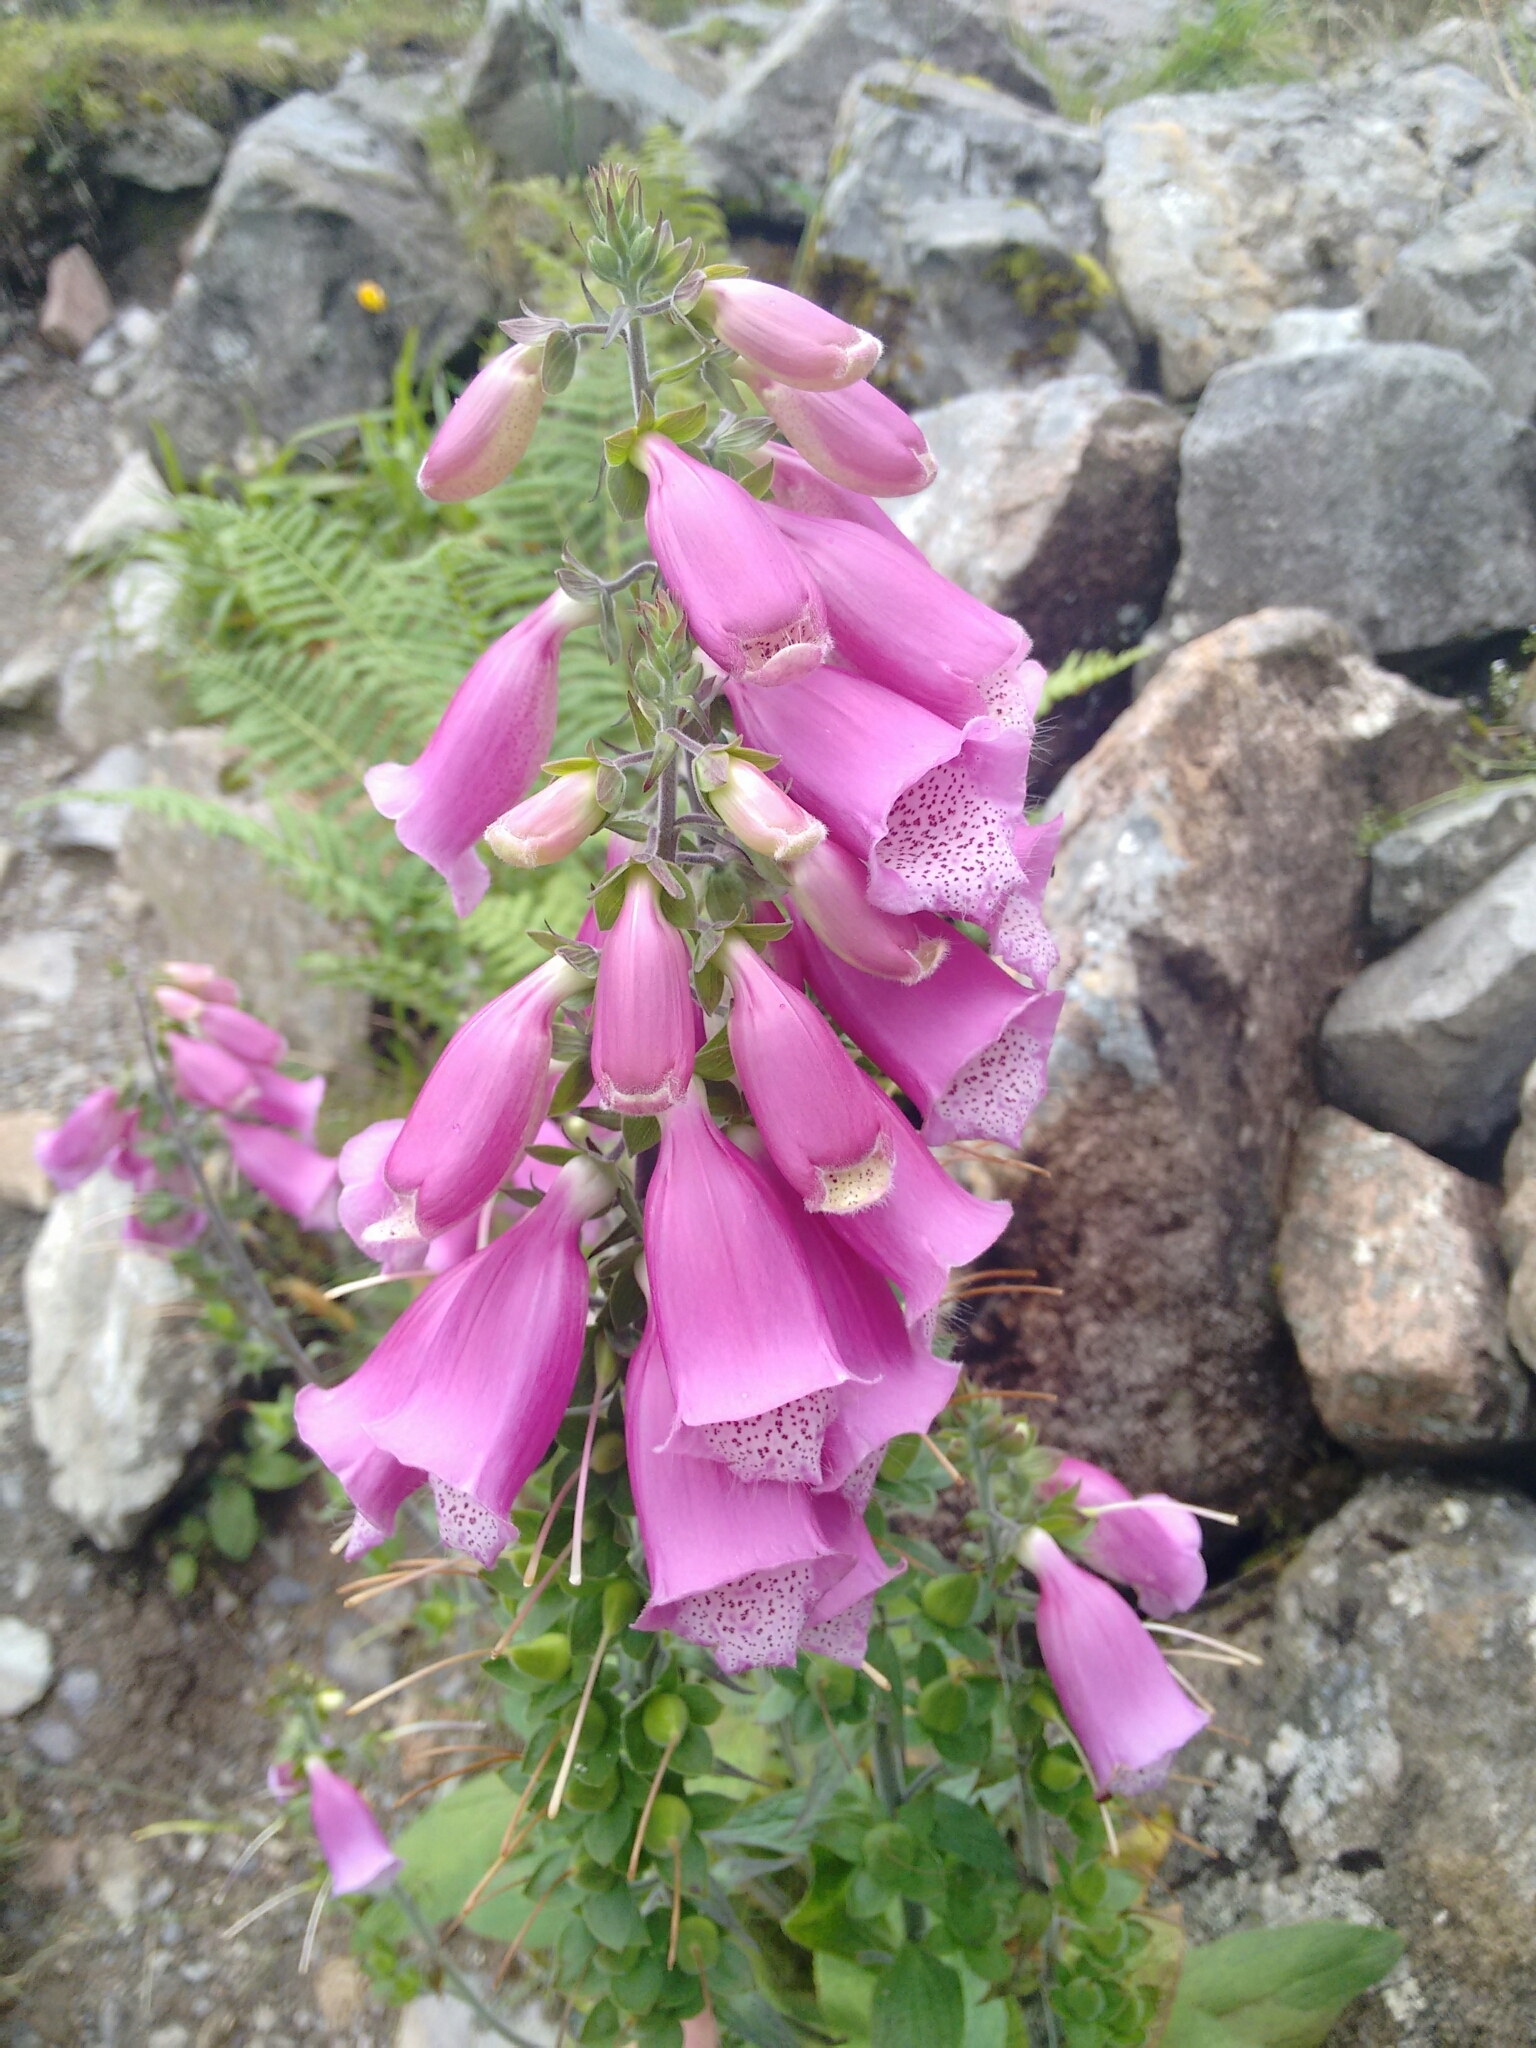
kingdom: Plantae
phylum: Tracheophyta
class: Magnoliopsida
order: Lamiales
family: Plantaginaceae
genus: Digitalis
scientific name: Digitalis purpurea
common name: Foxglove
